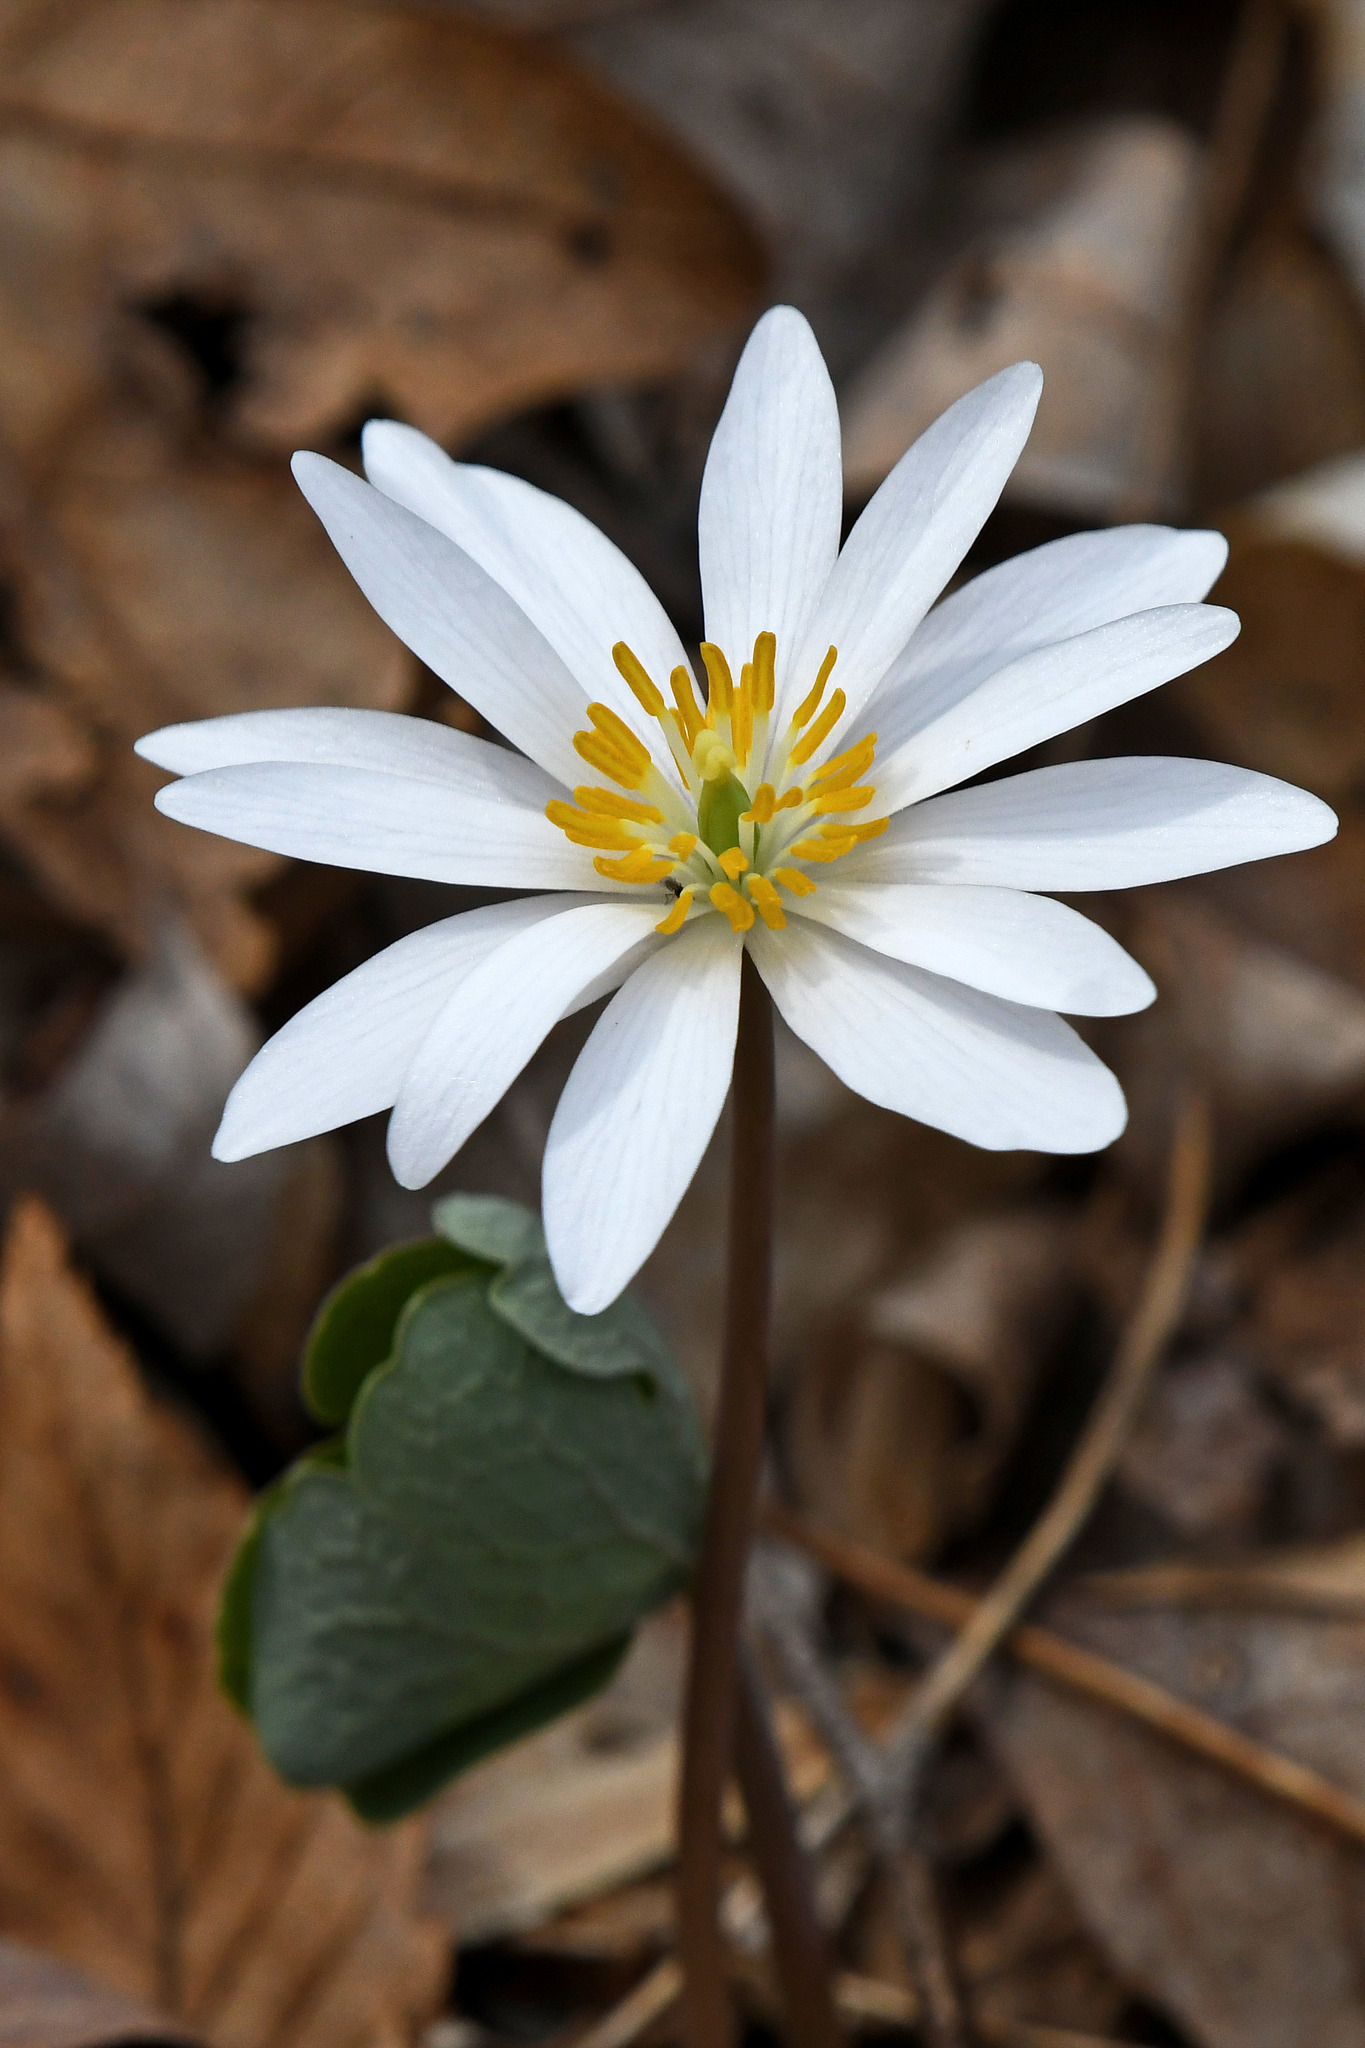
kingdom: Plantae
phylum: Tracheophyta
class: Magnoliopsida
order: Ranunculales
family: Papaveraceae
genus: Sanguinaria
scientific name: Sanguinaria canadensis
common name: Bloodroot
